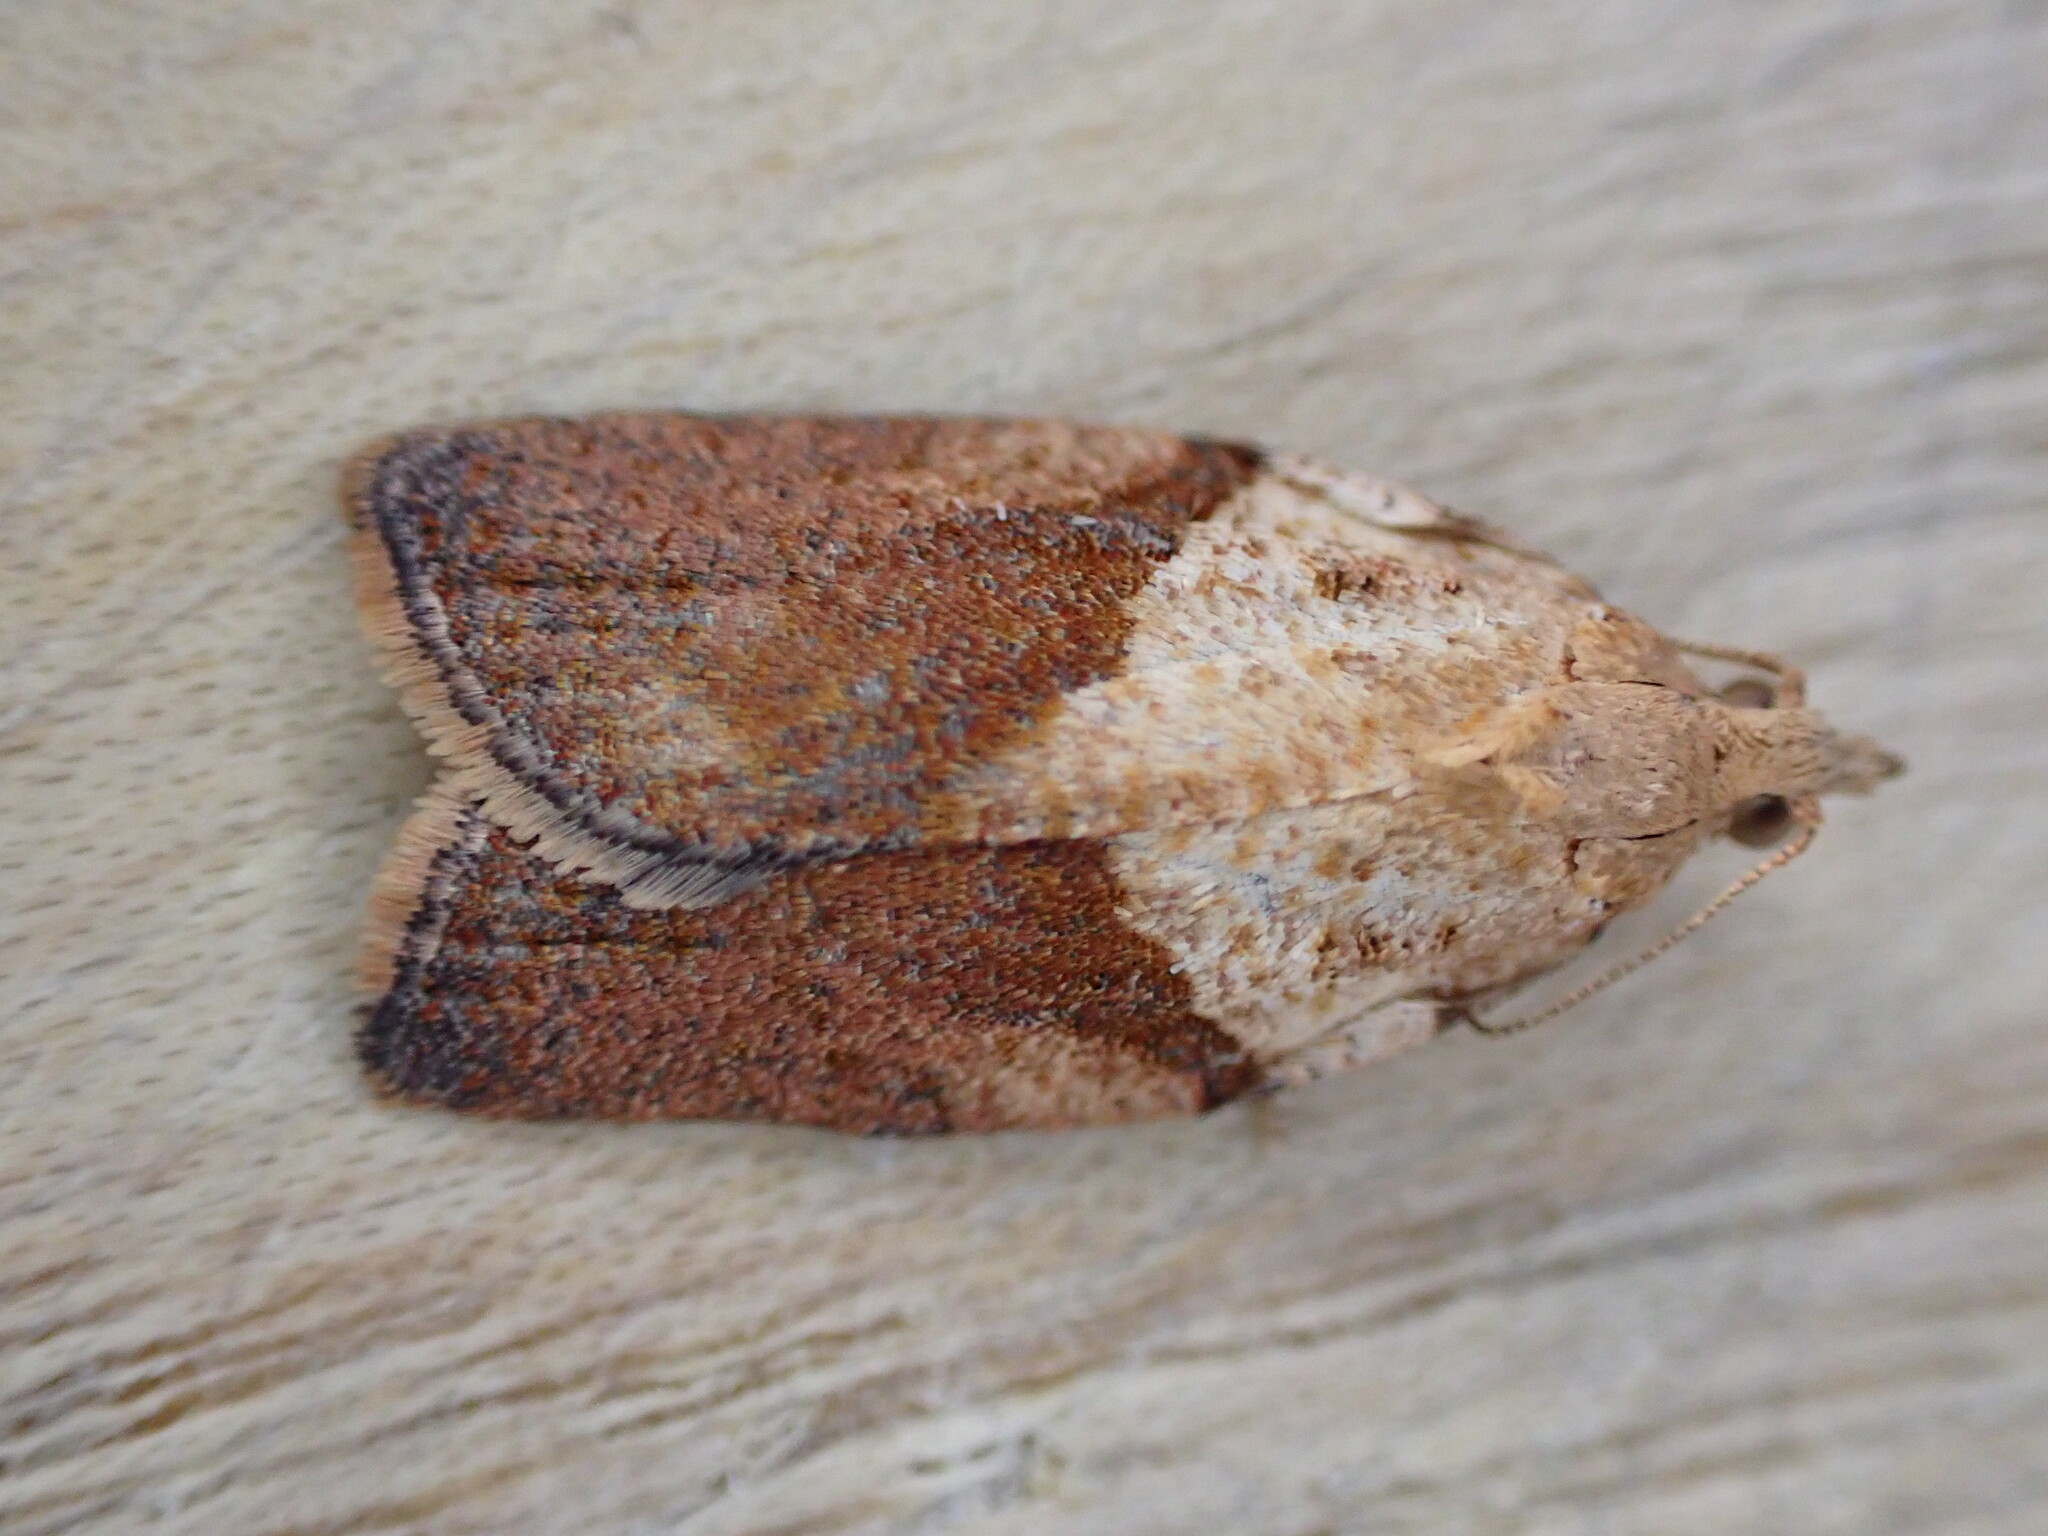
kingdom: Animalia
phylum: Arthropoda
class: Insecta
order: Lepidoptera
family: Tortricidae
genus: Epiphyas
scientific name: Epiphyas postvittana
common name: Light brown apple moth
